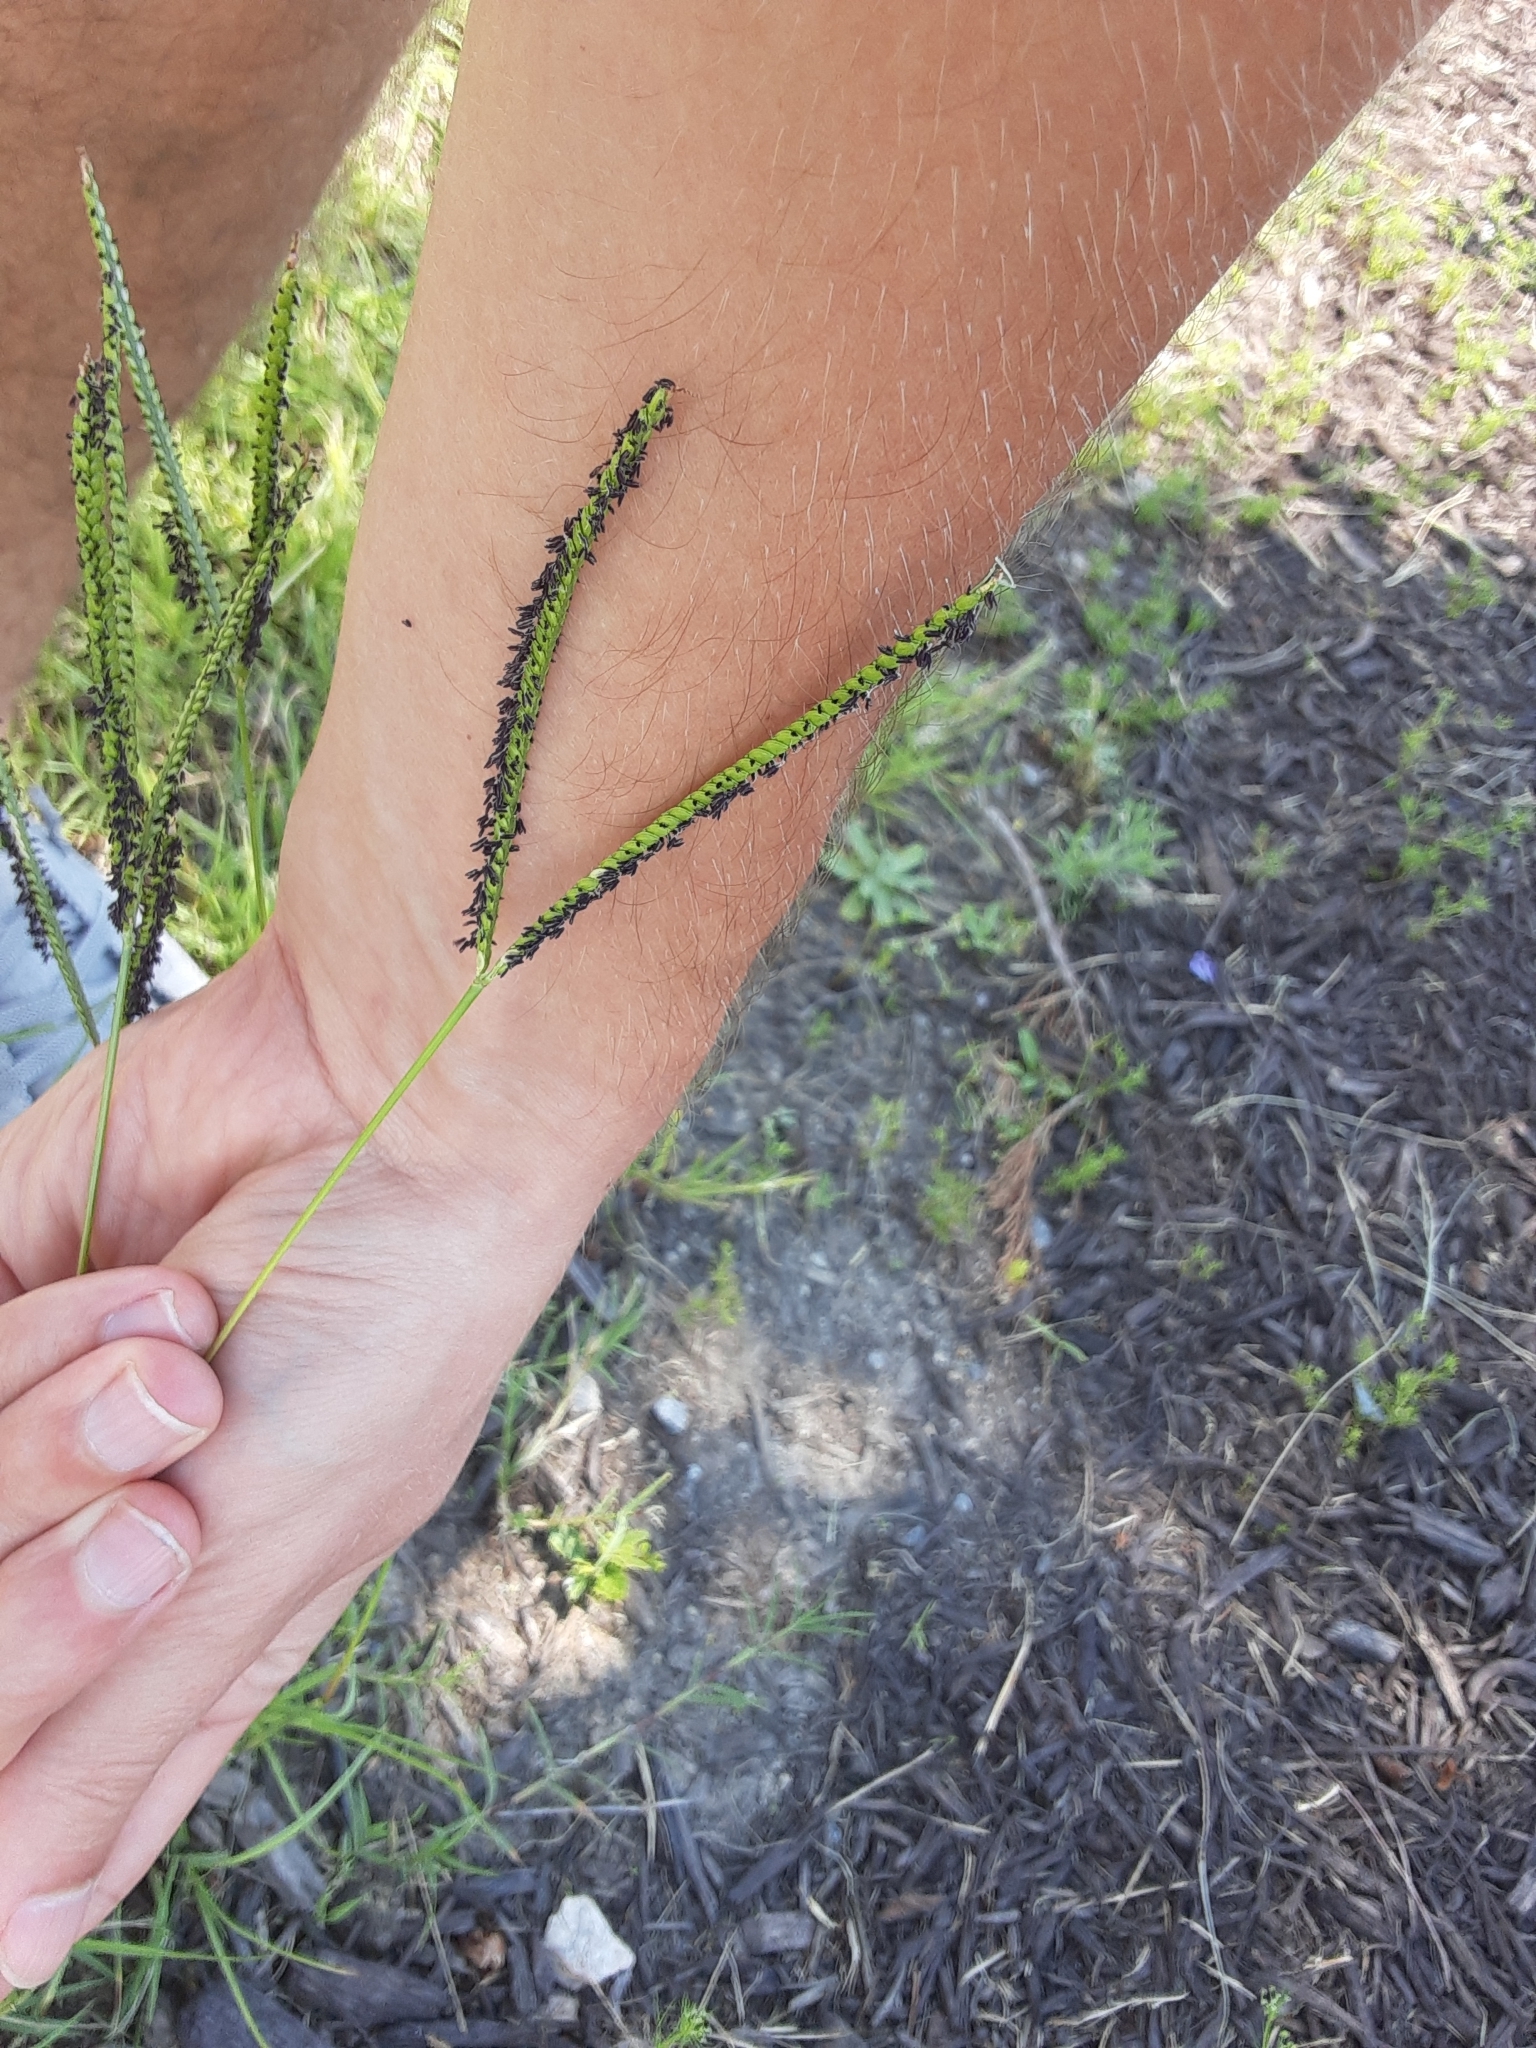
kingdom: Plantae
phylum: Tracheophyta
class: Liliopsida
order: Poales
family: Poaceae
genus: Paspalum
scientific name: Paspalum notatum
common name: Bahiagrass
